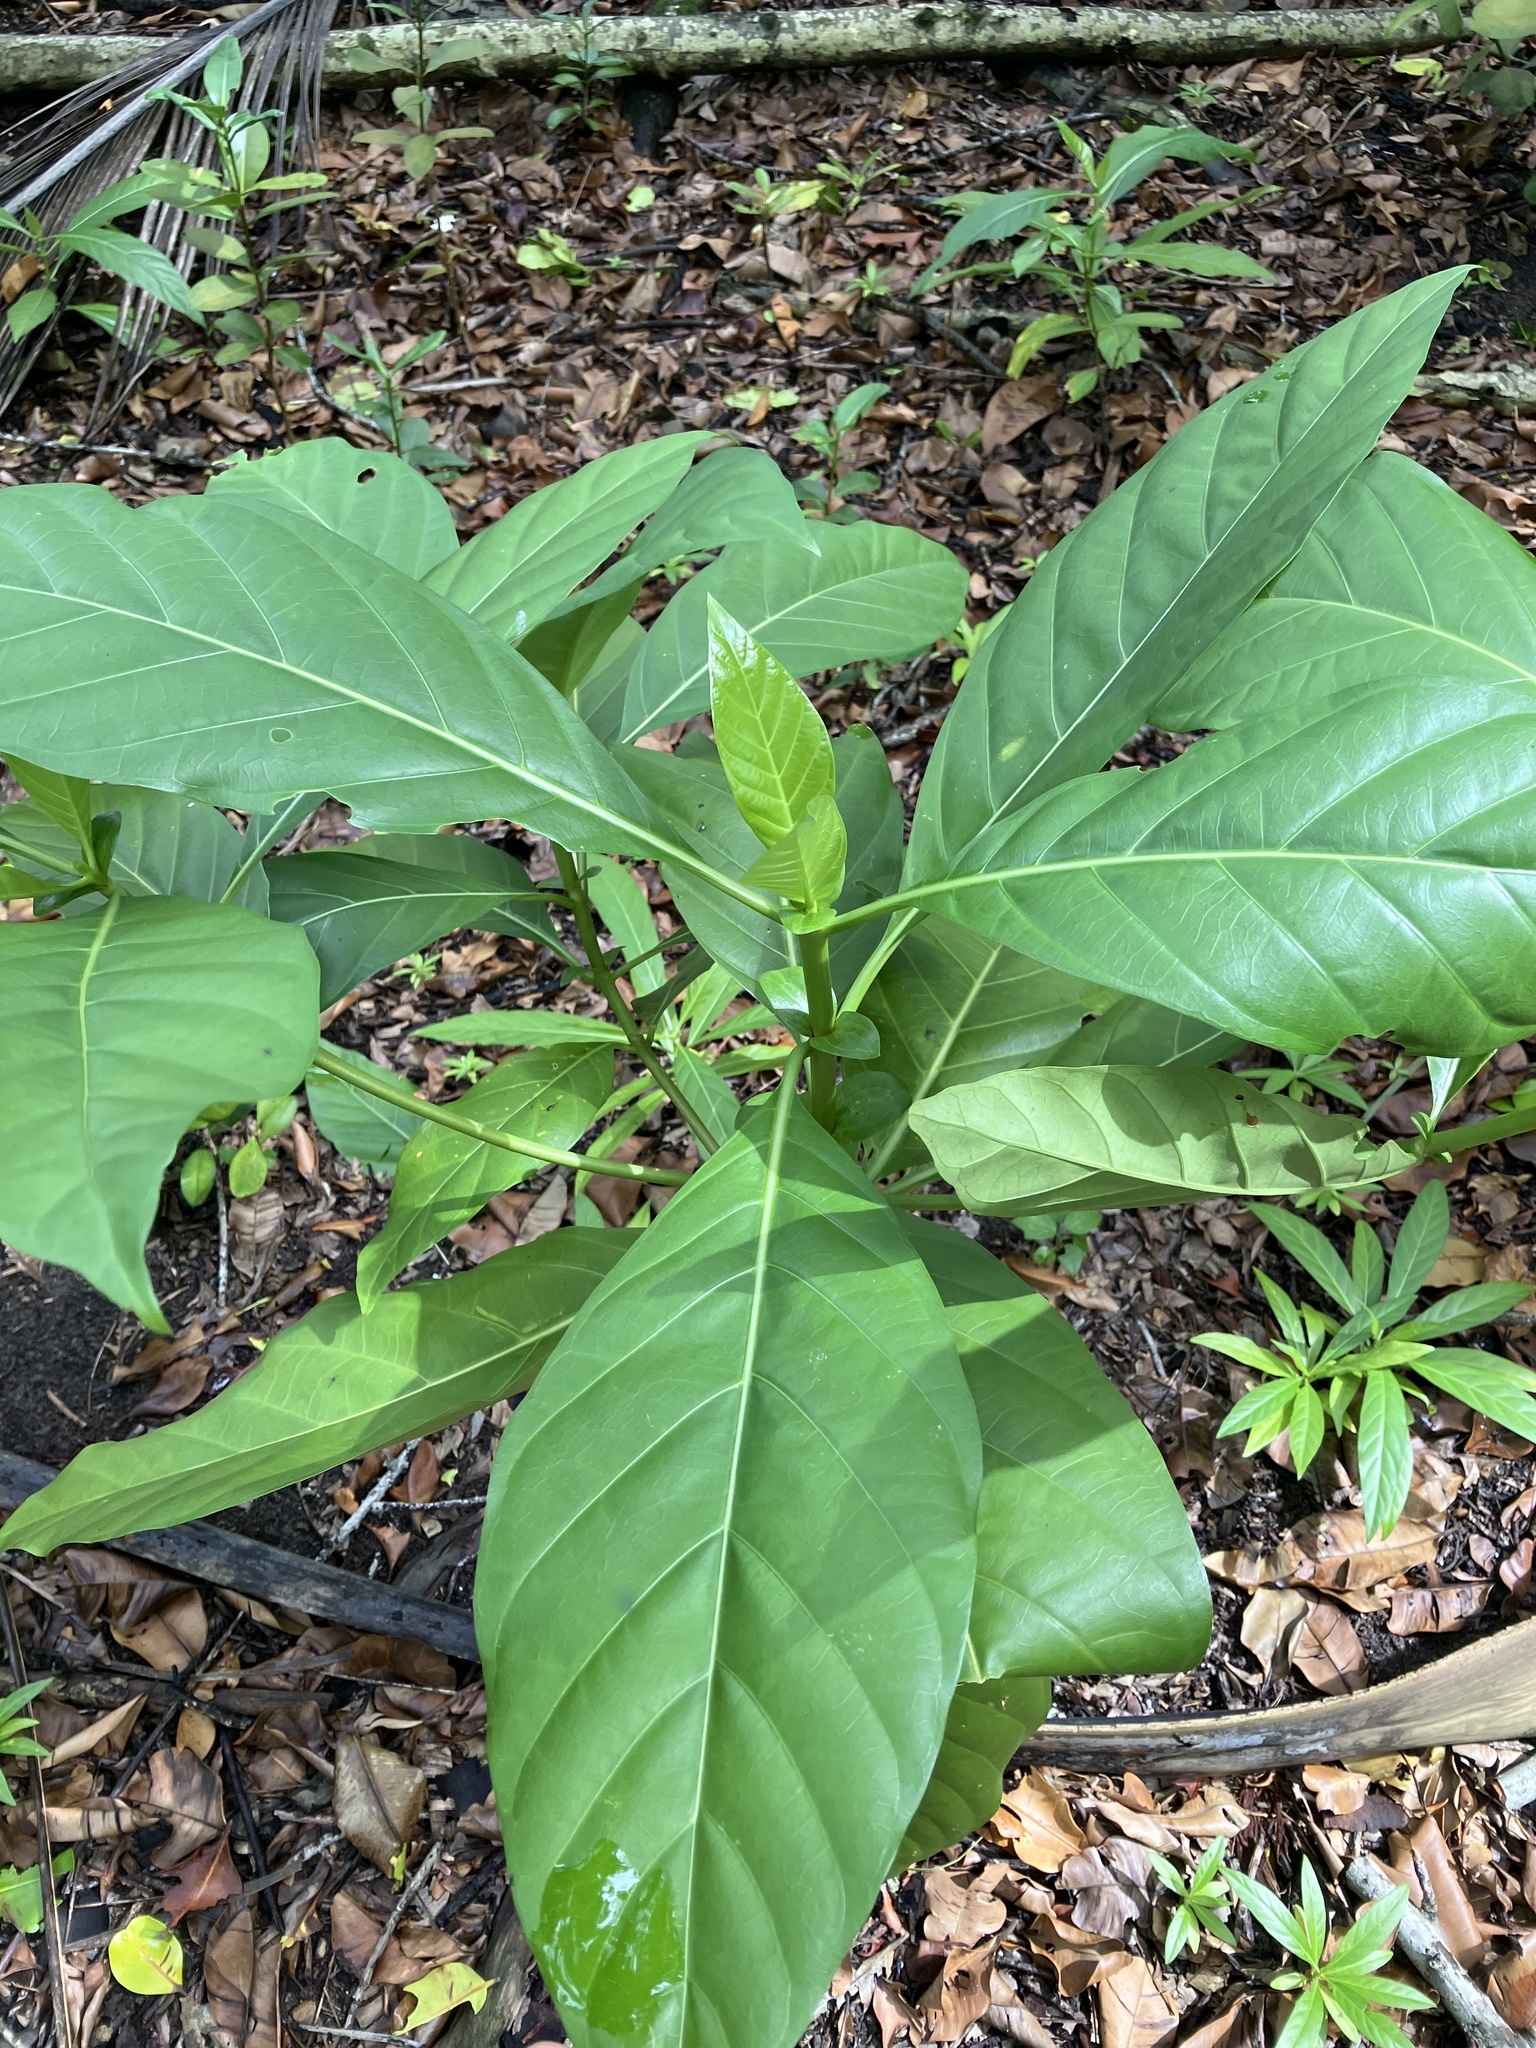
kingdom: Plantae
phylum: Tracheophyta
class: Magnoliopsida
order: Gentianales
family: Rubiaceae
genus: Morinda
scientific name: Morinda citrifolia
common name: Indian-mulberry
